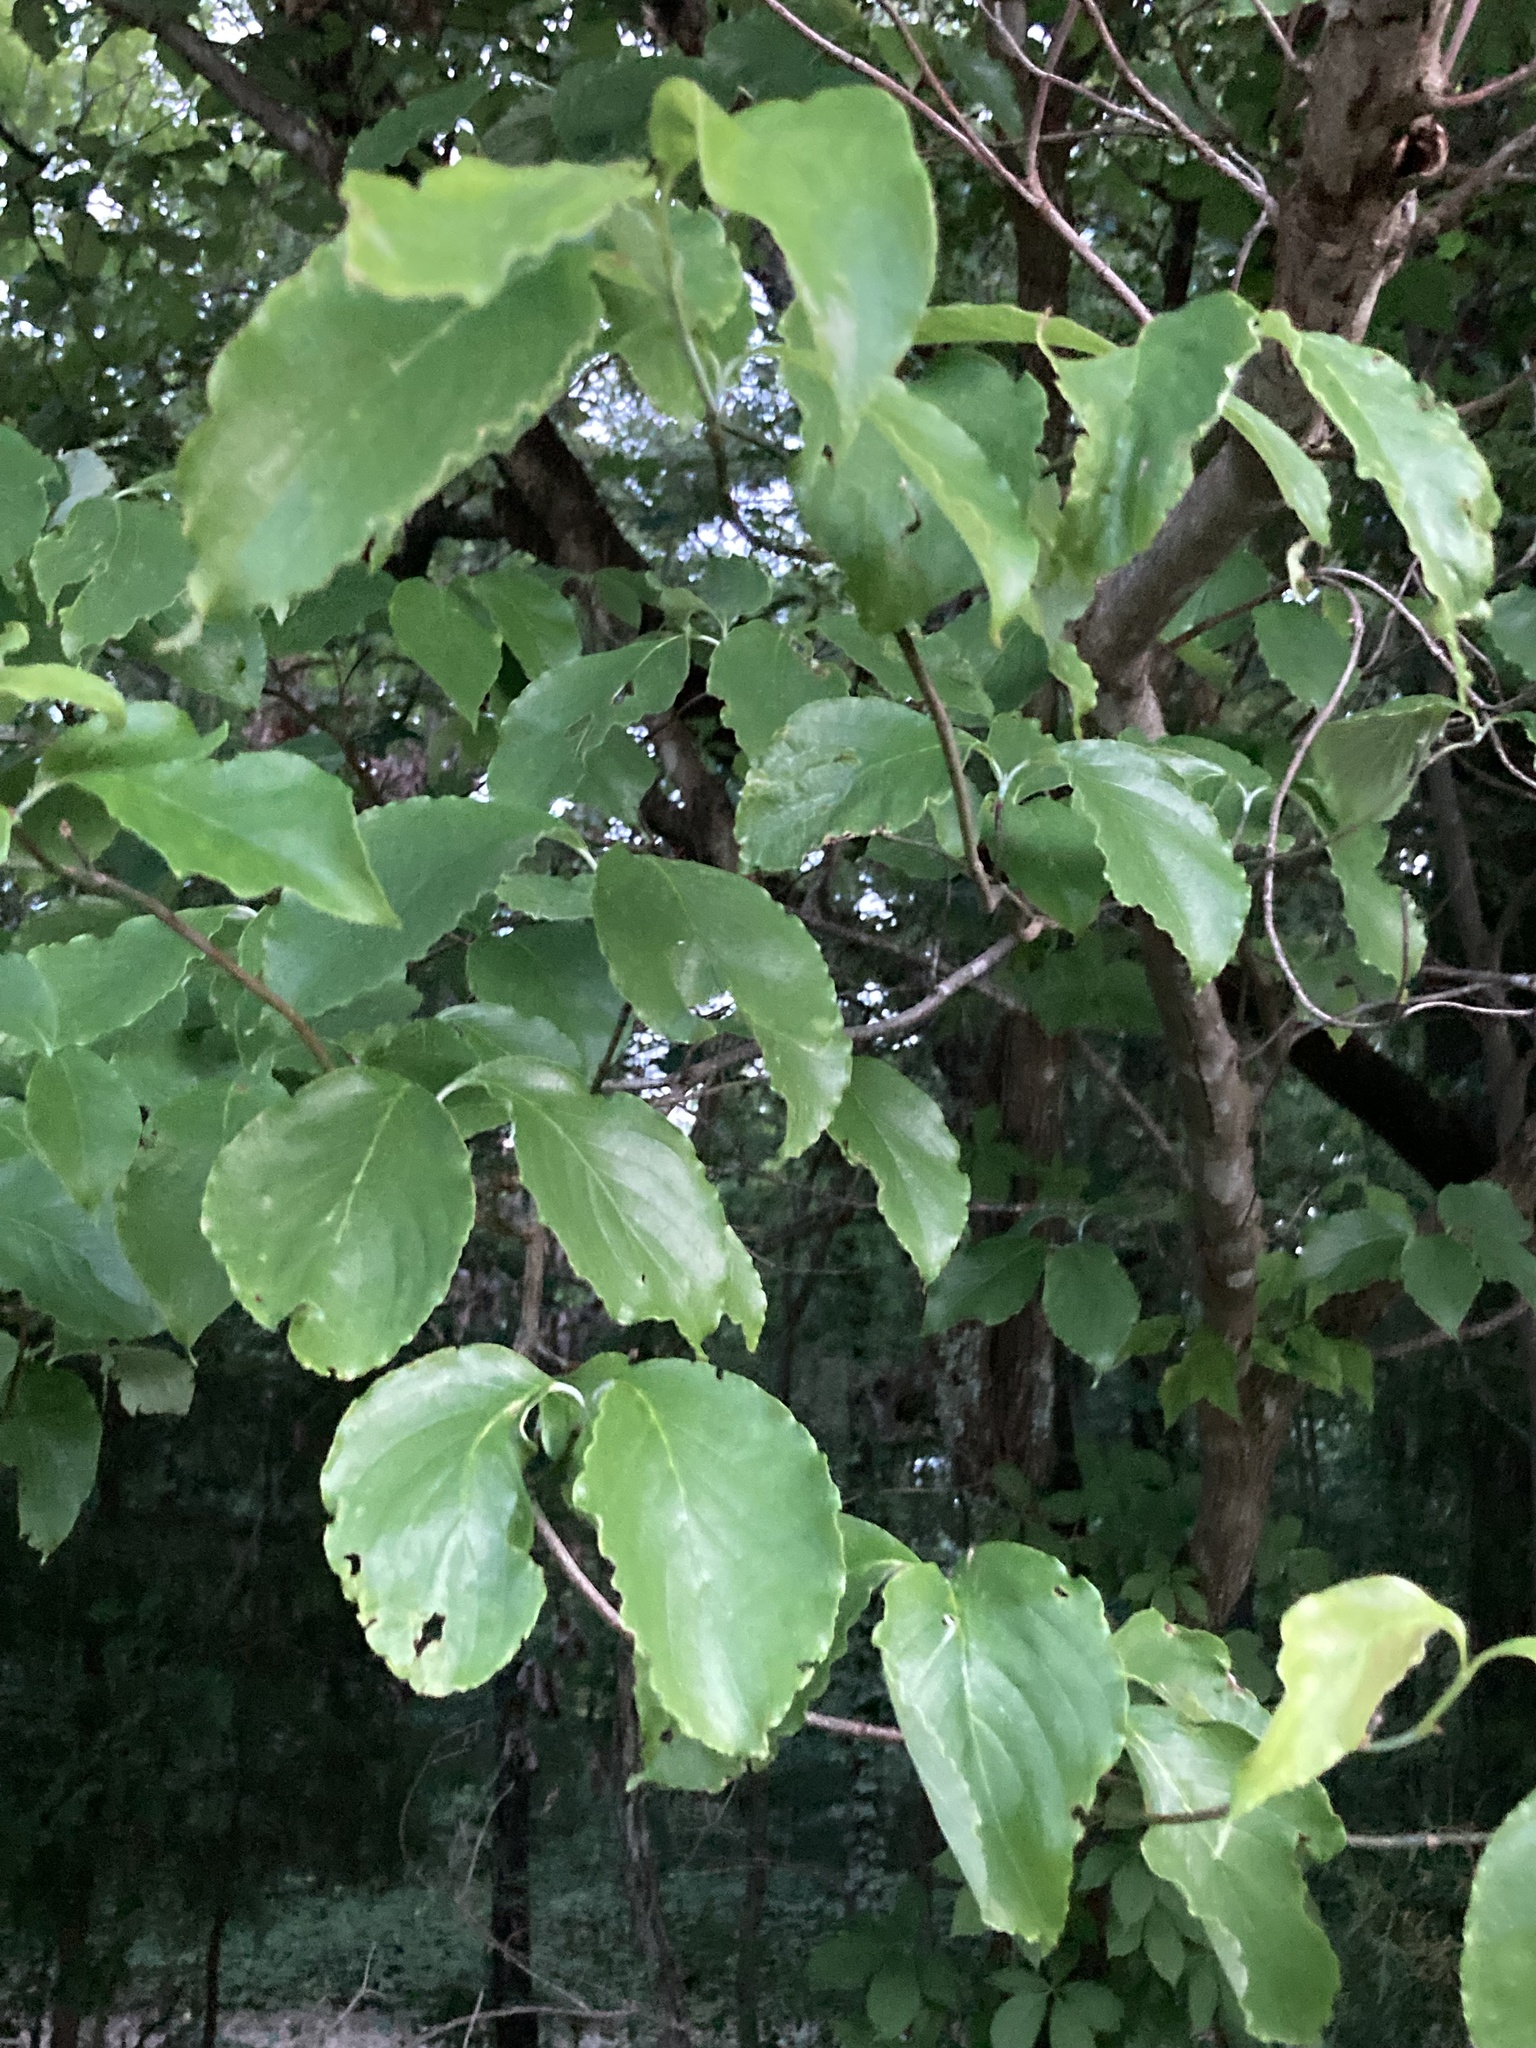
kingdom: Plantae
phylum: Tracheophyta
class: Magnoliopsida
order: Cornales
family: Cornaceae
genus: Cornus
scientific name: Cornus florida
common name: Flowering dogwood
